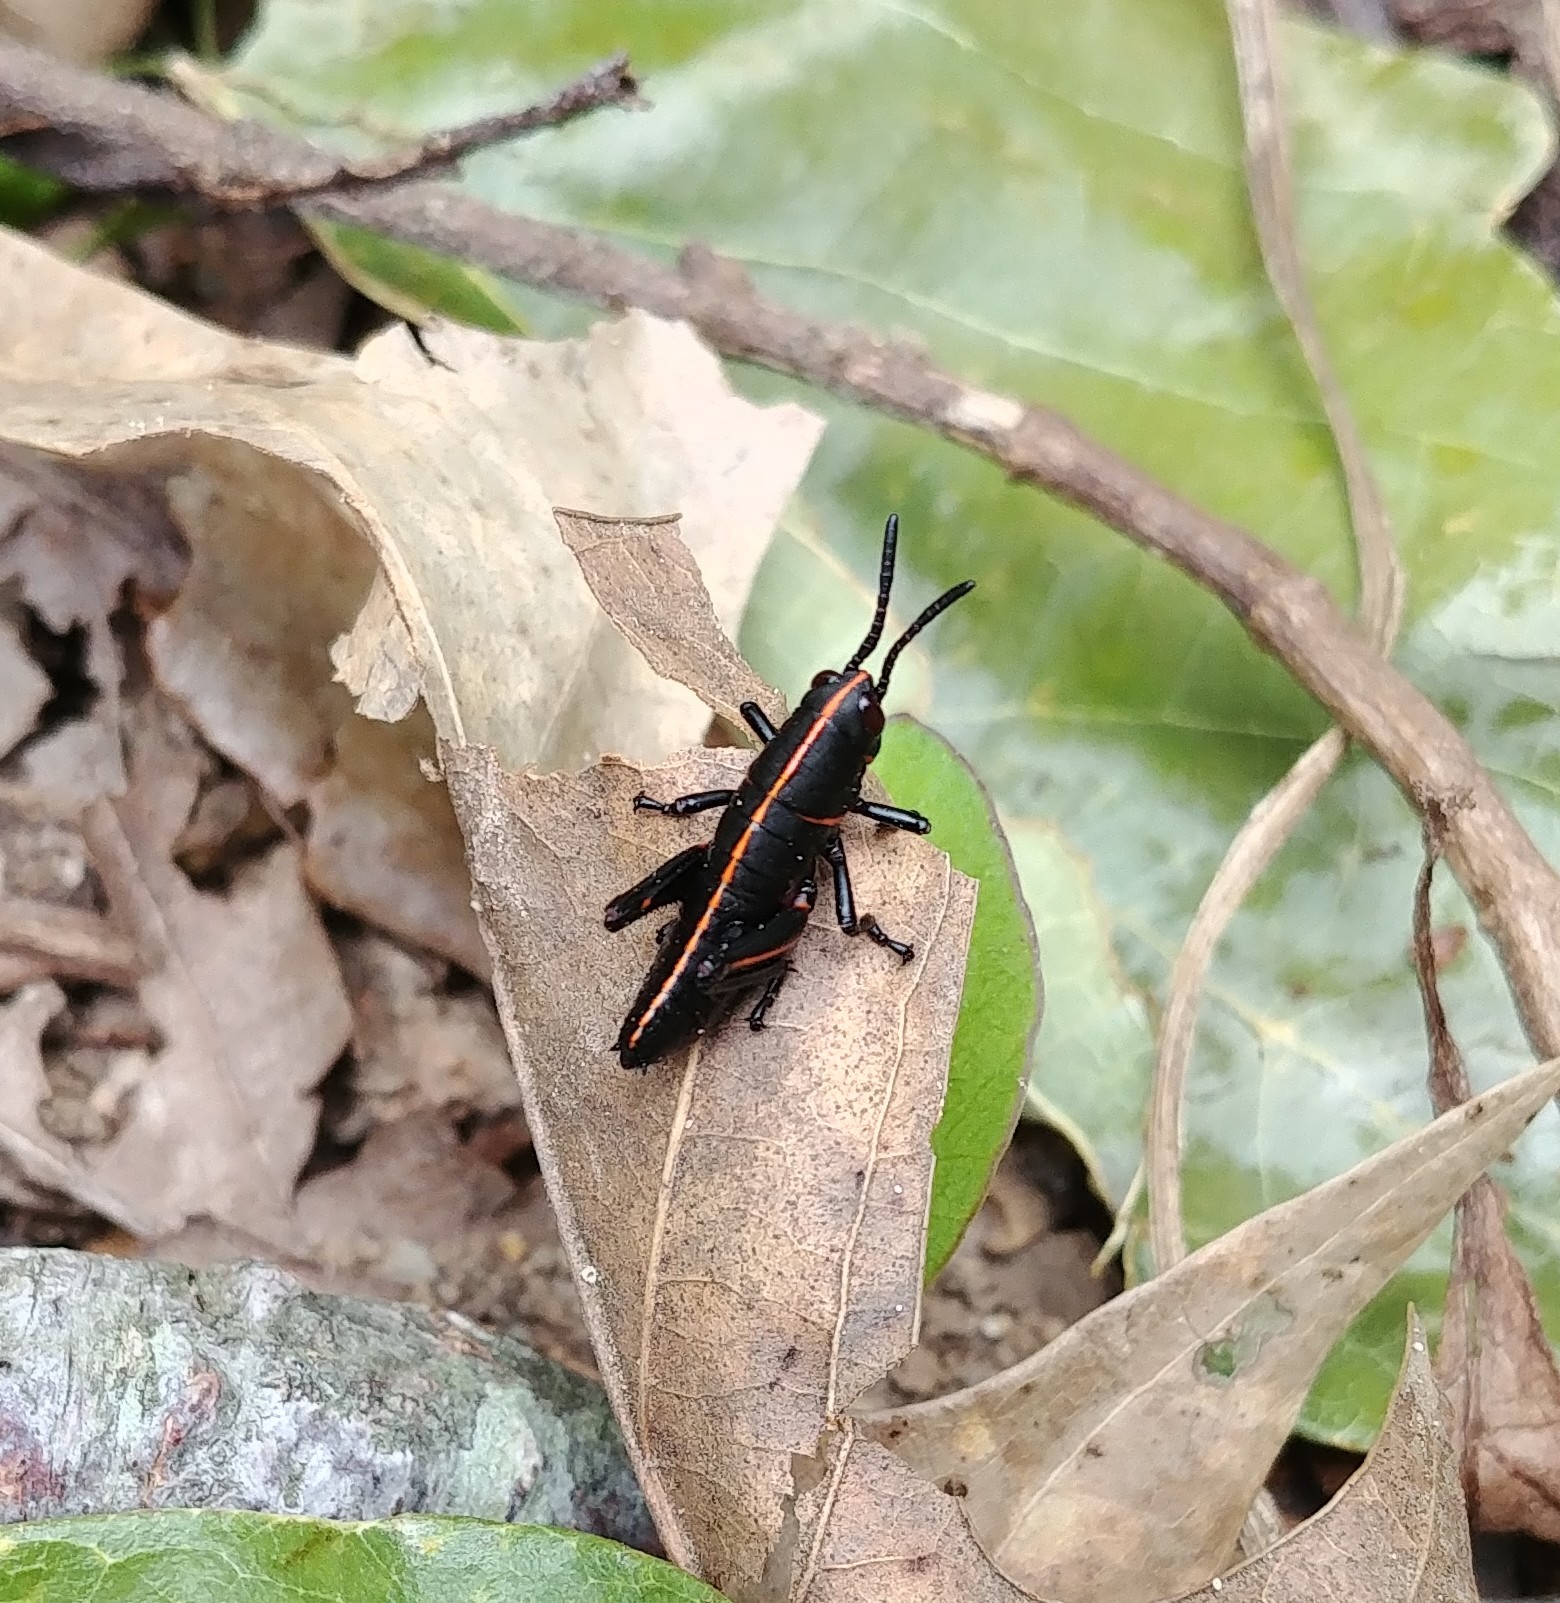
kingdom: Animalia
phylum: Arthropoda
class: Insecta
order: Orthoptera
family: Romaleidae
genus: Romalea
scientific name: Romalea microptera
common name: Eastern lubber grasshopper
